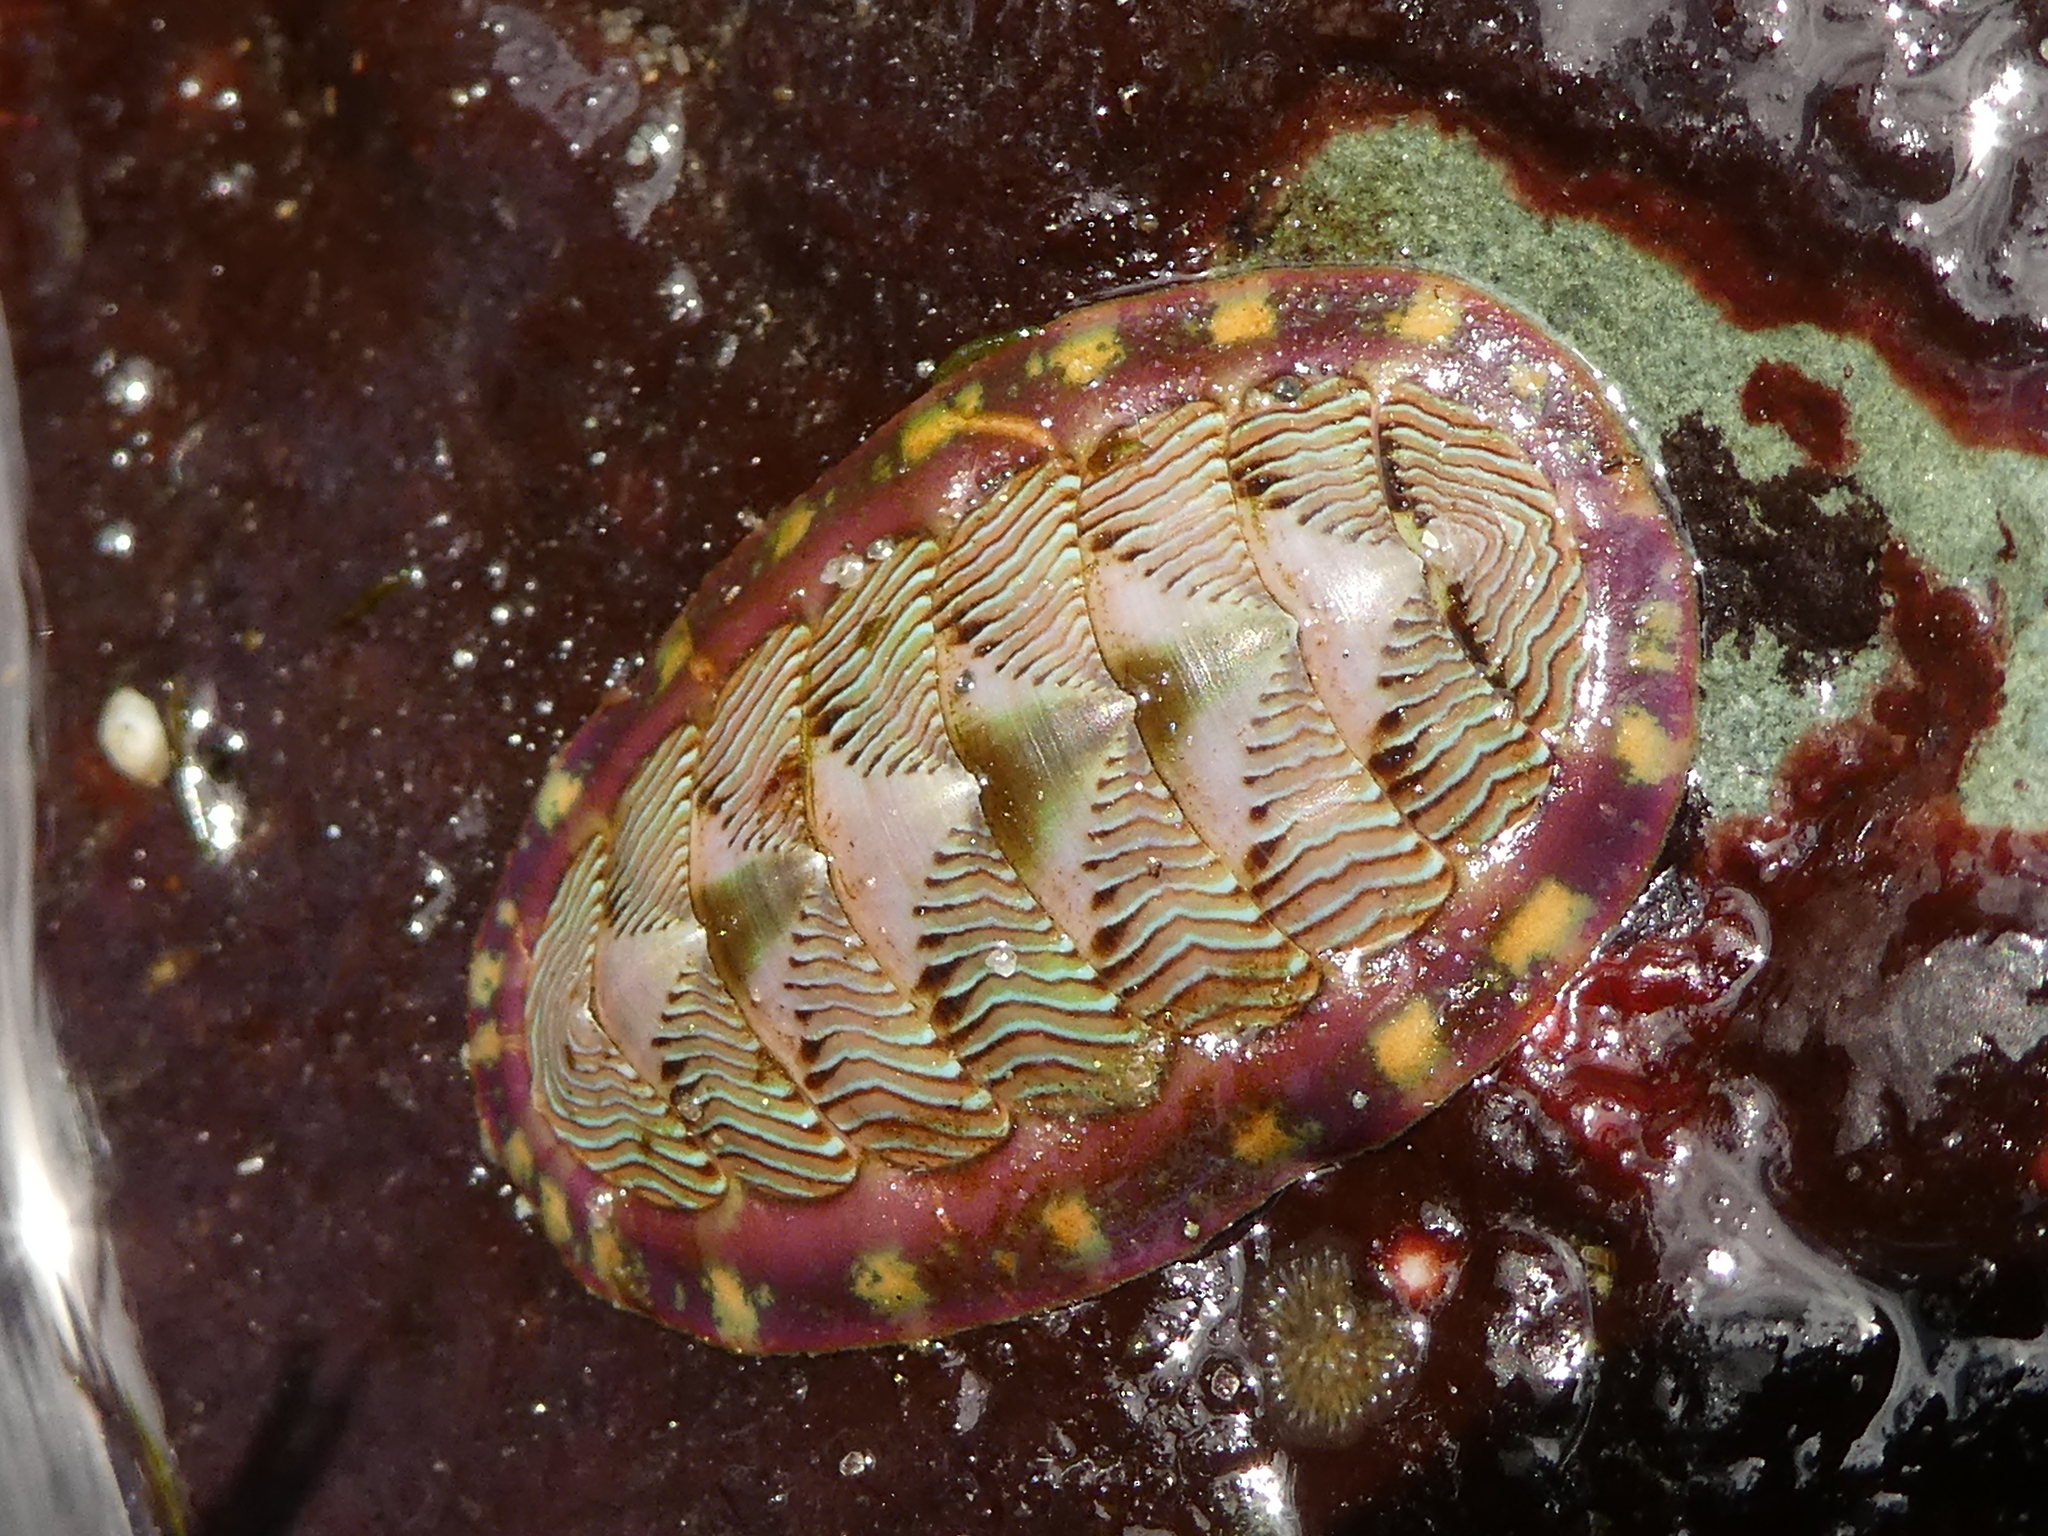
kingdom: Animalia
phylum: Mollusca
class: Polyplacophora
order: Chitonida
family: Tonicellidae
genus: Tonicella
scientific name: Tonicella lineata
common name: Lined chiton
